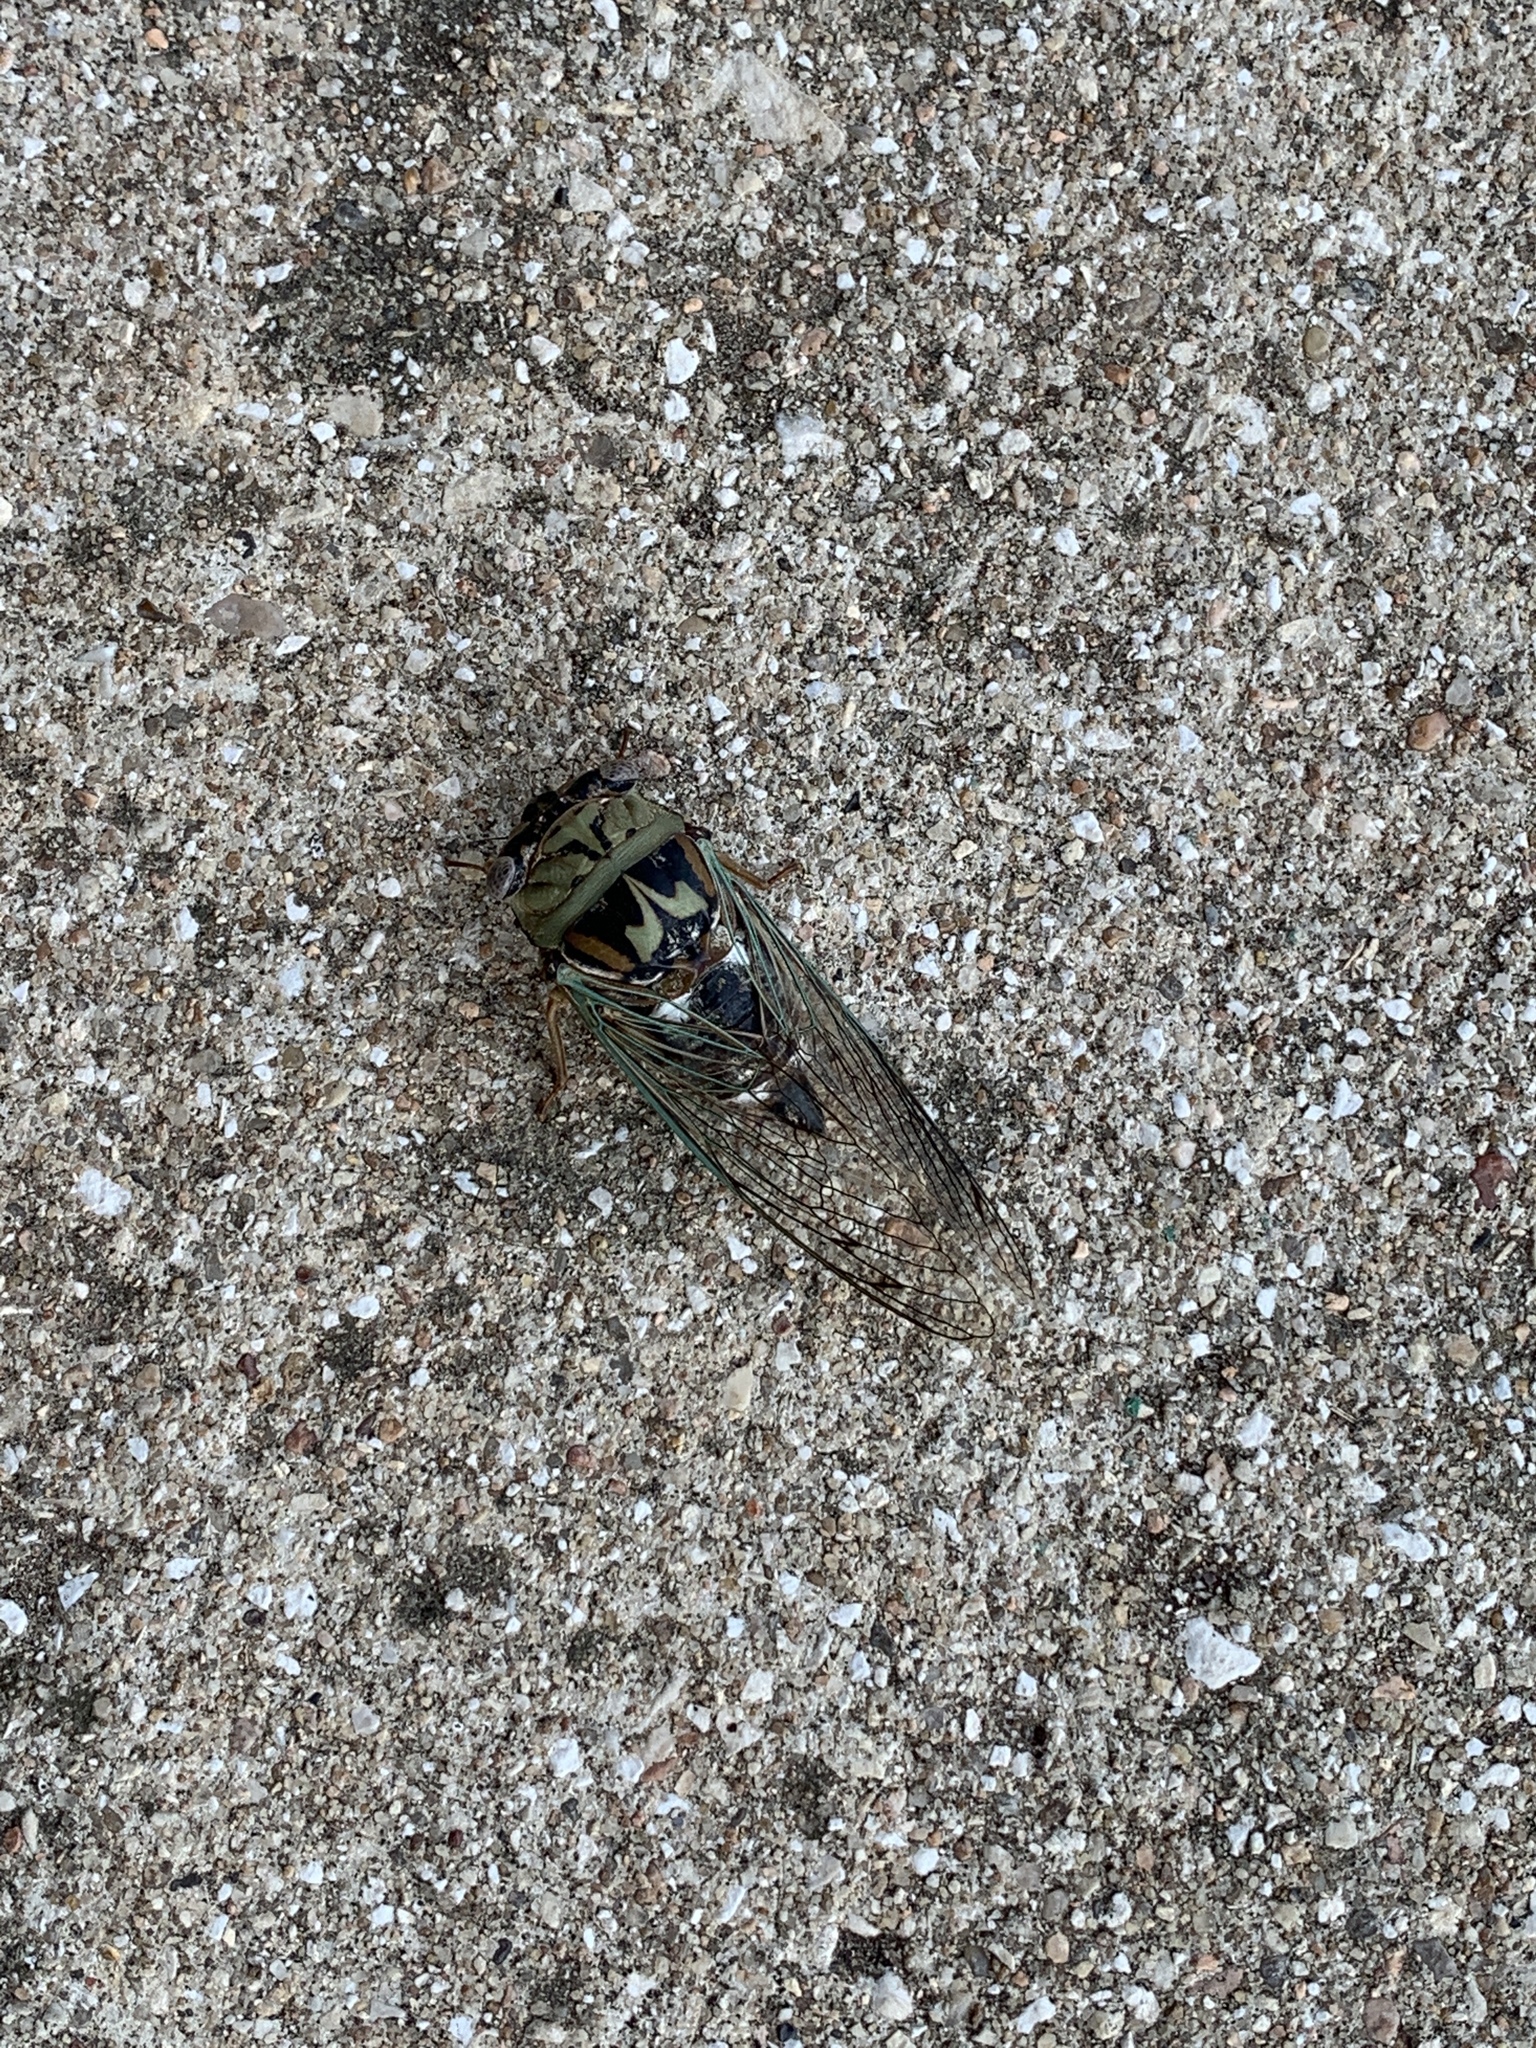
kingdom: Animalia
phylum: Arthropoda
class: Insecta
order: Hemiptera
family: Cicadidae
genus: Megatibicen
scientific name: Megatibicen resh
